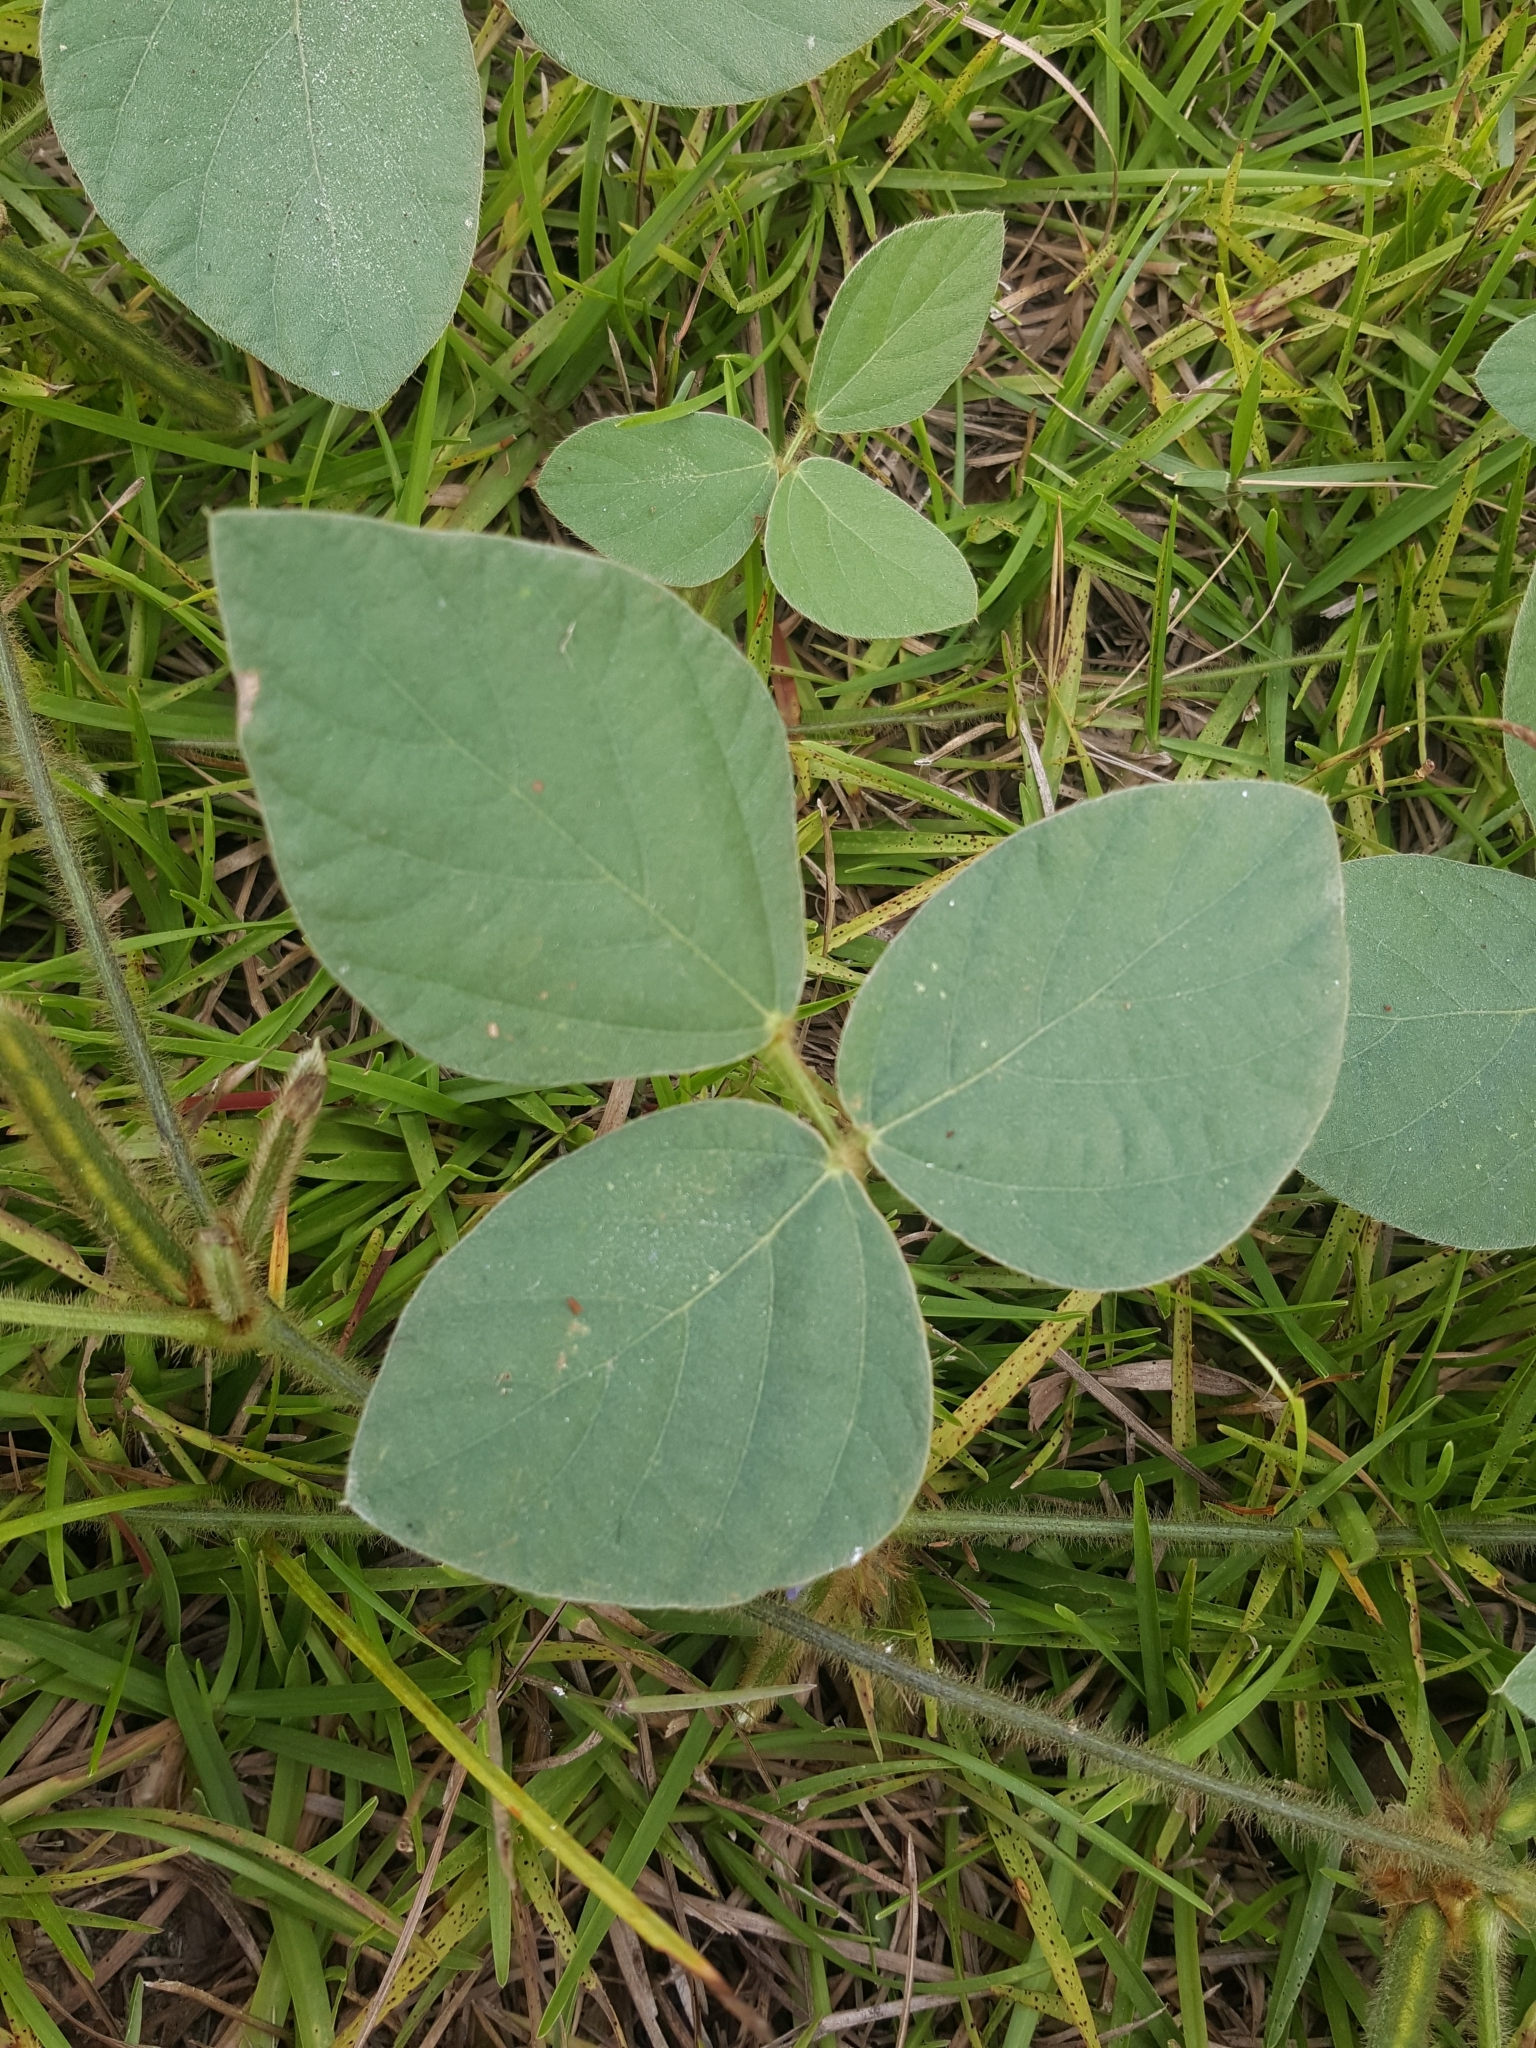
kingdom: Plantae
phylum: Tracheophyta
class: Magnoliopsida
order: Fabales
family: Fabaceae
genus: Calopogonium
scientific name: Calopogonium mucunoides
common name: Calopo
